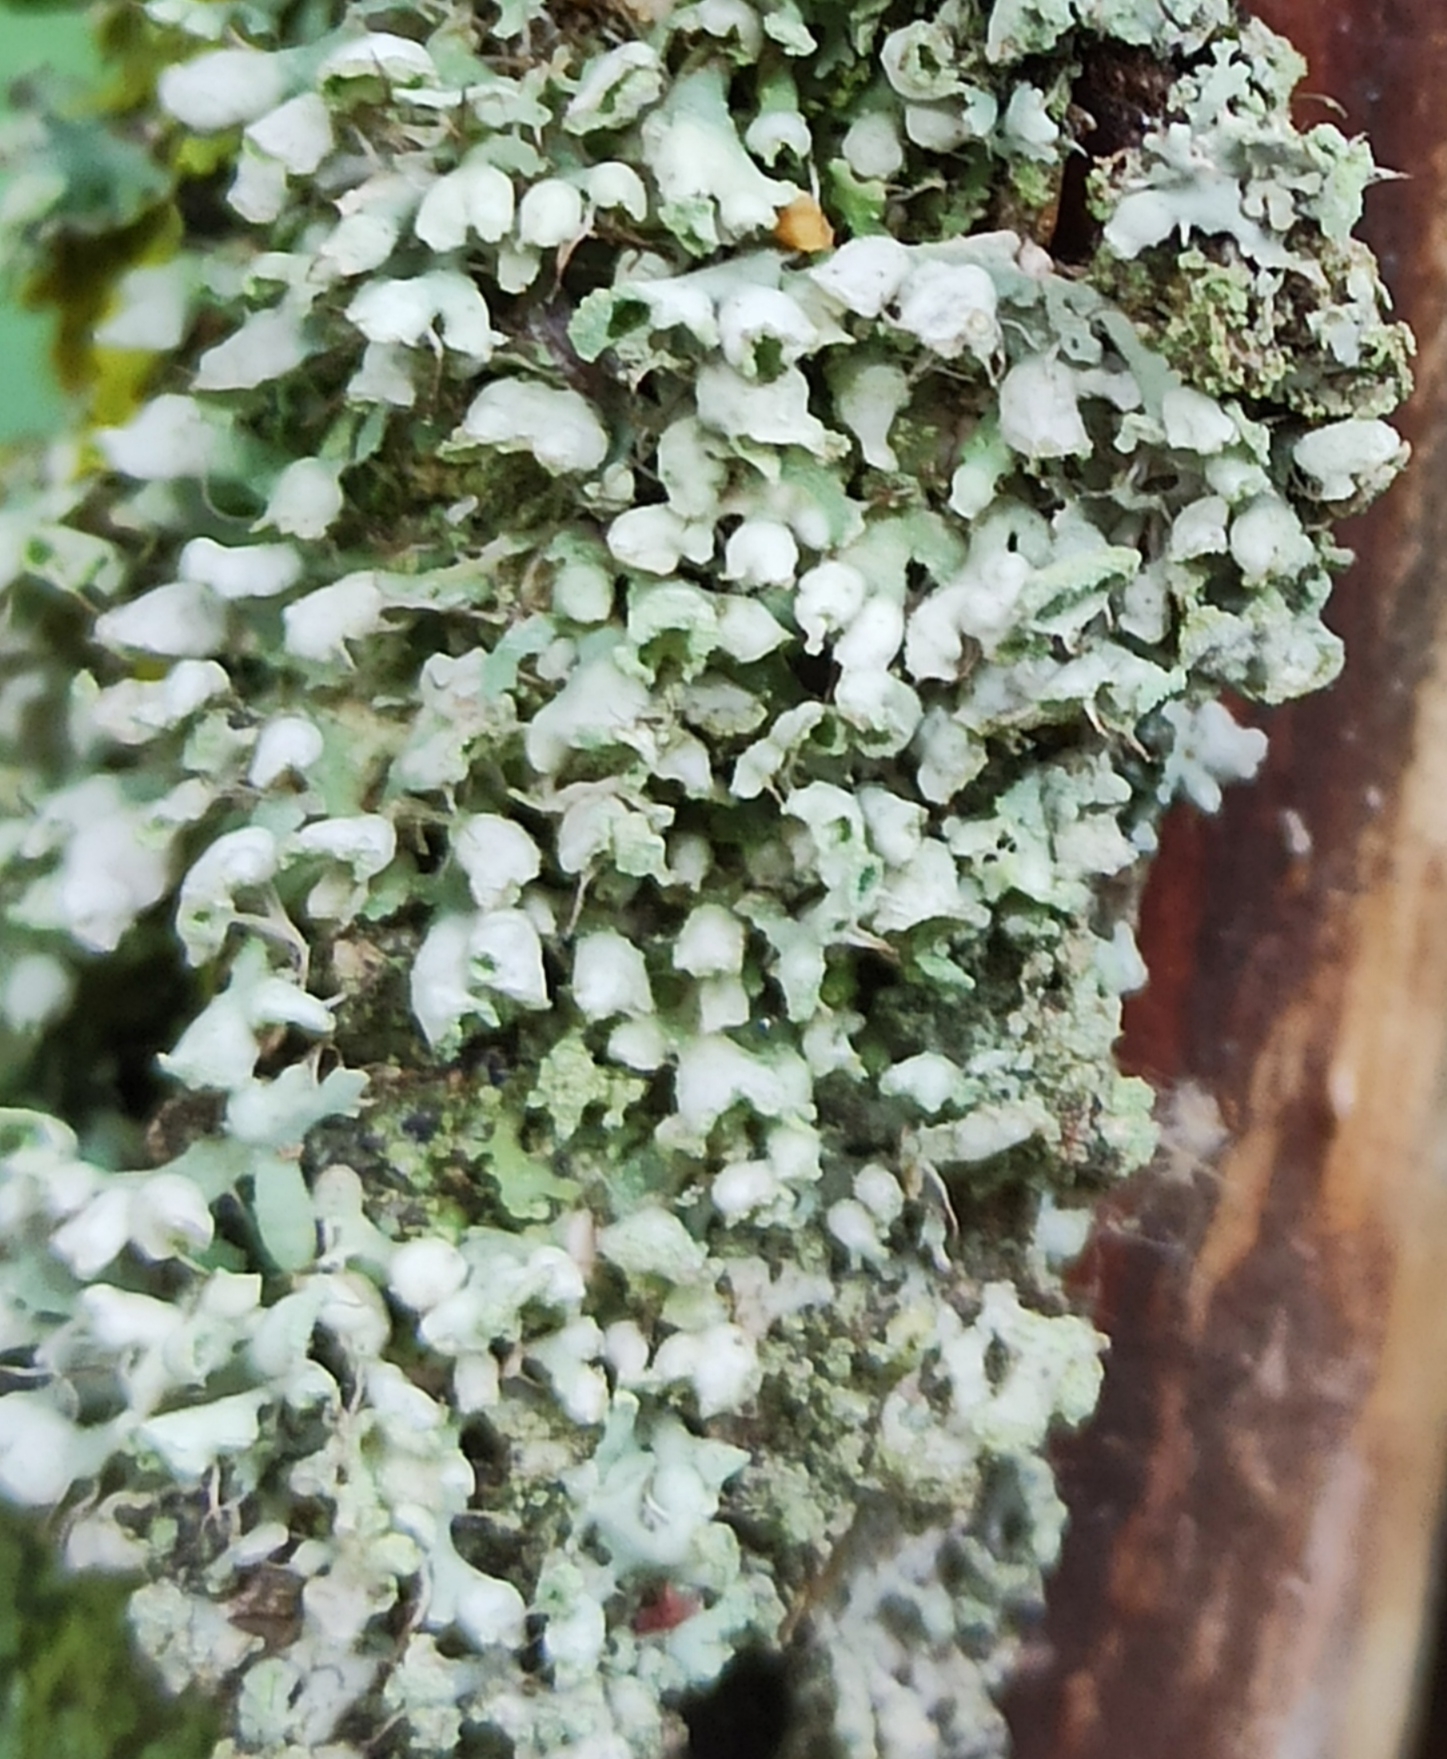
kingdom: Fungi
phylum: Ascomycota
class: Lecanoromycetes
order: Caliciales
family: Physciaceae
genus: Physcia
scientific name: Physcia adscendens
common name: Hooded rosette lichen
